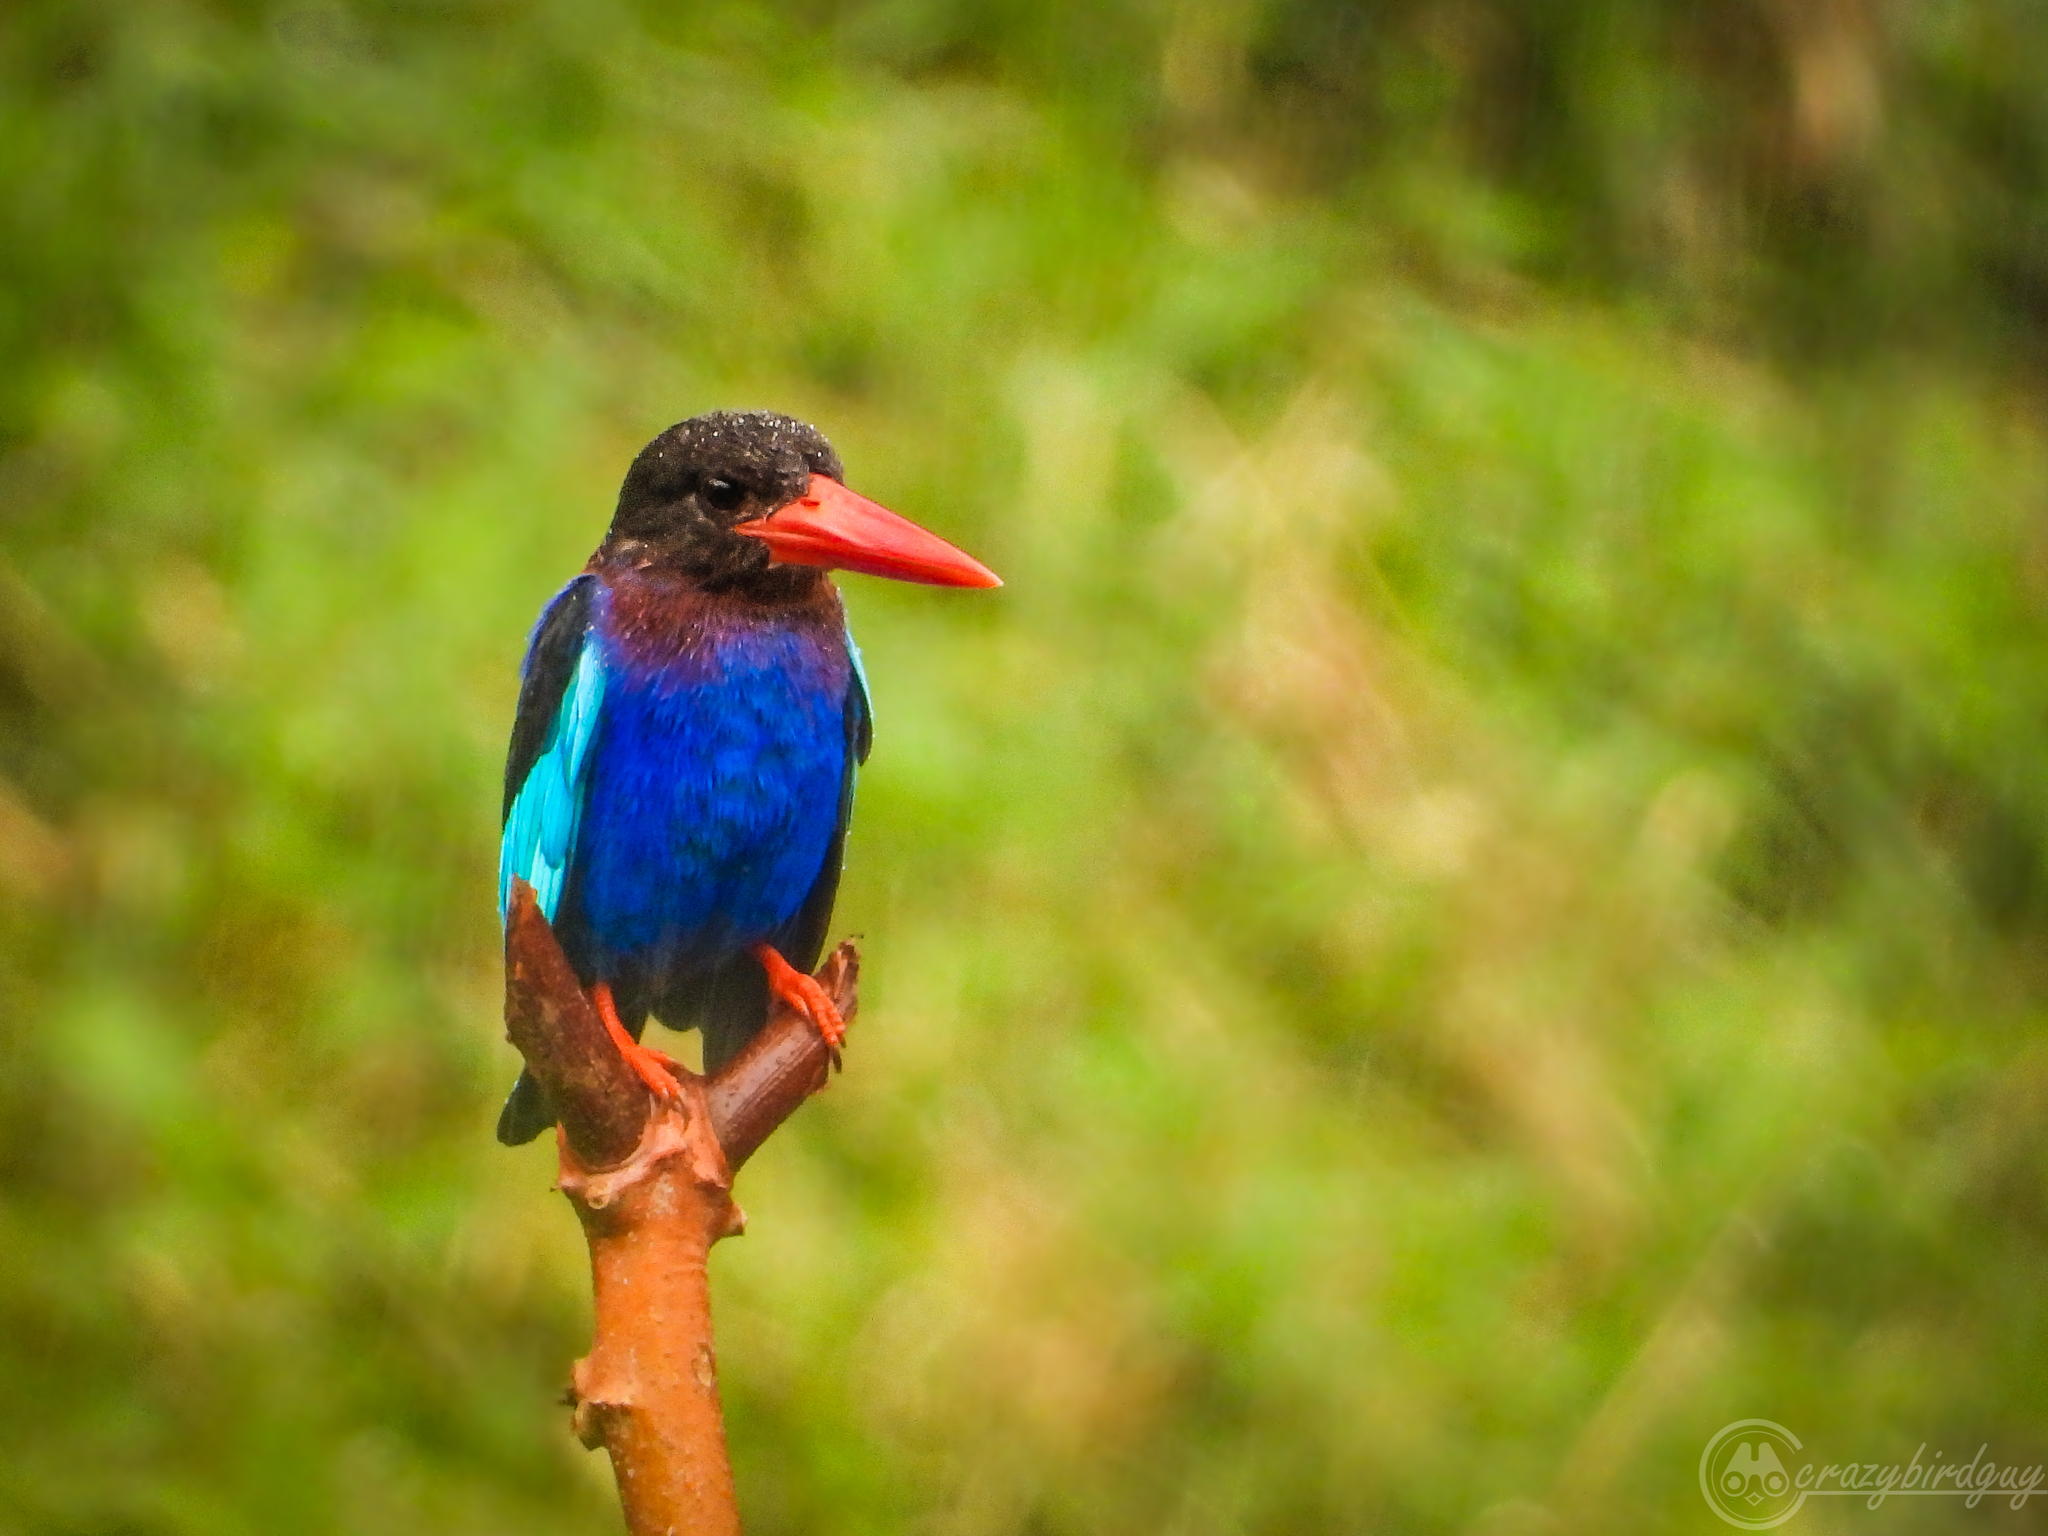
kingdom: Animalia
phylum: Chordata
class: Aves
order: Coraciiformes
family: Alcedinidae
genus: Halcyon
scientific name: Halcyon cyanoventris
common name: Javan kingfisher
